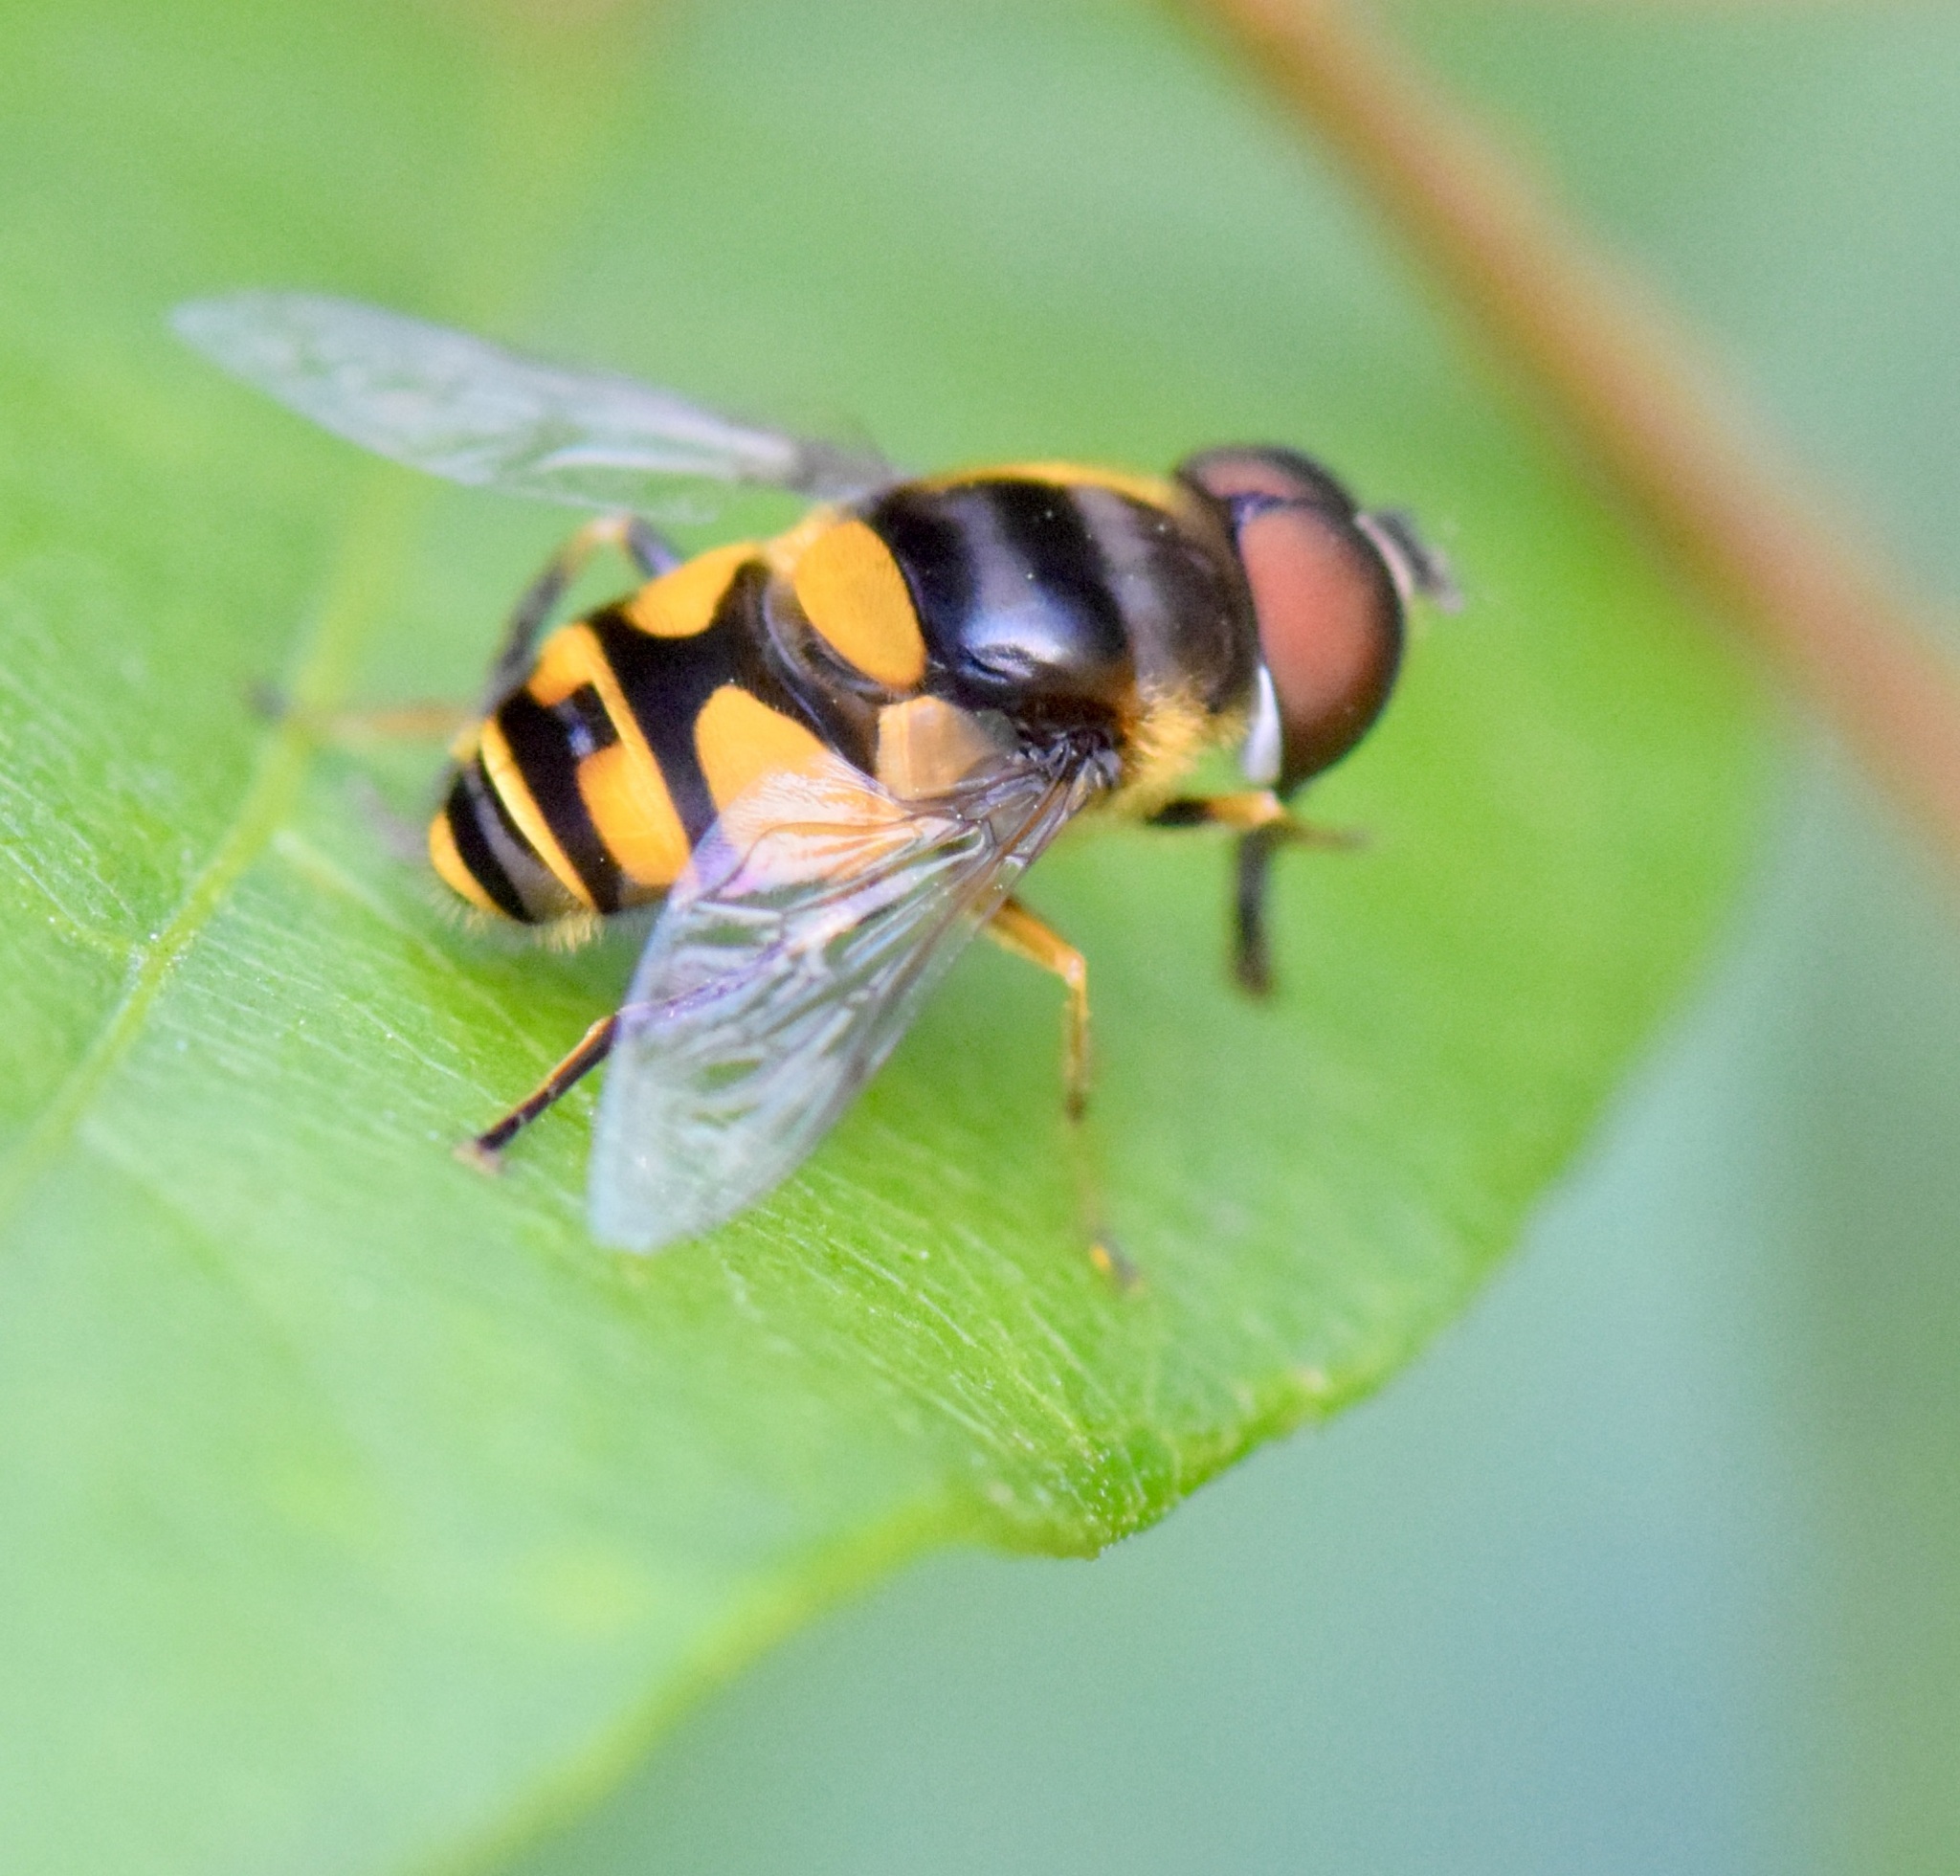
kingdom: Animalia
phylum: Arthropoda
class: Insecta
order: Diptera
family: Syrphidae
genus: Eristalis
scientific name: Eristalis transversa
